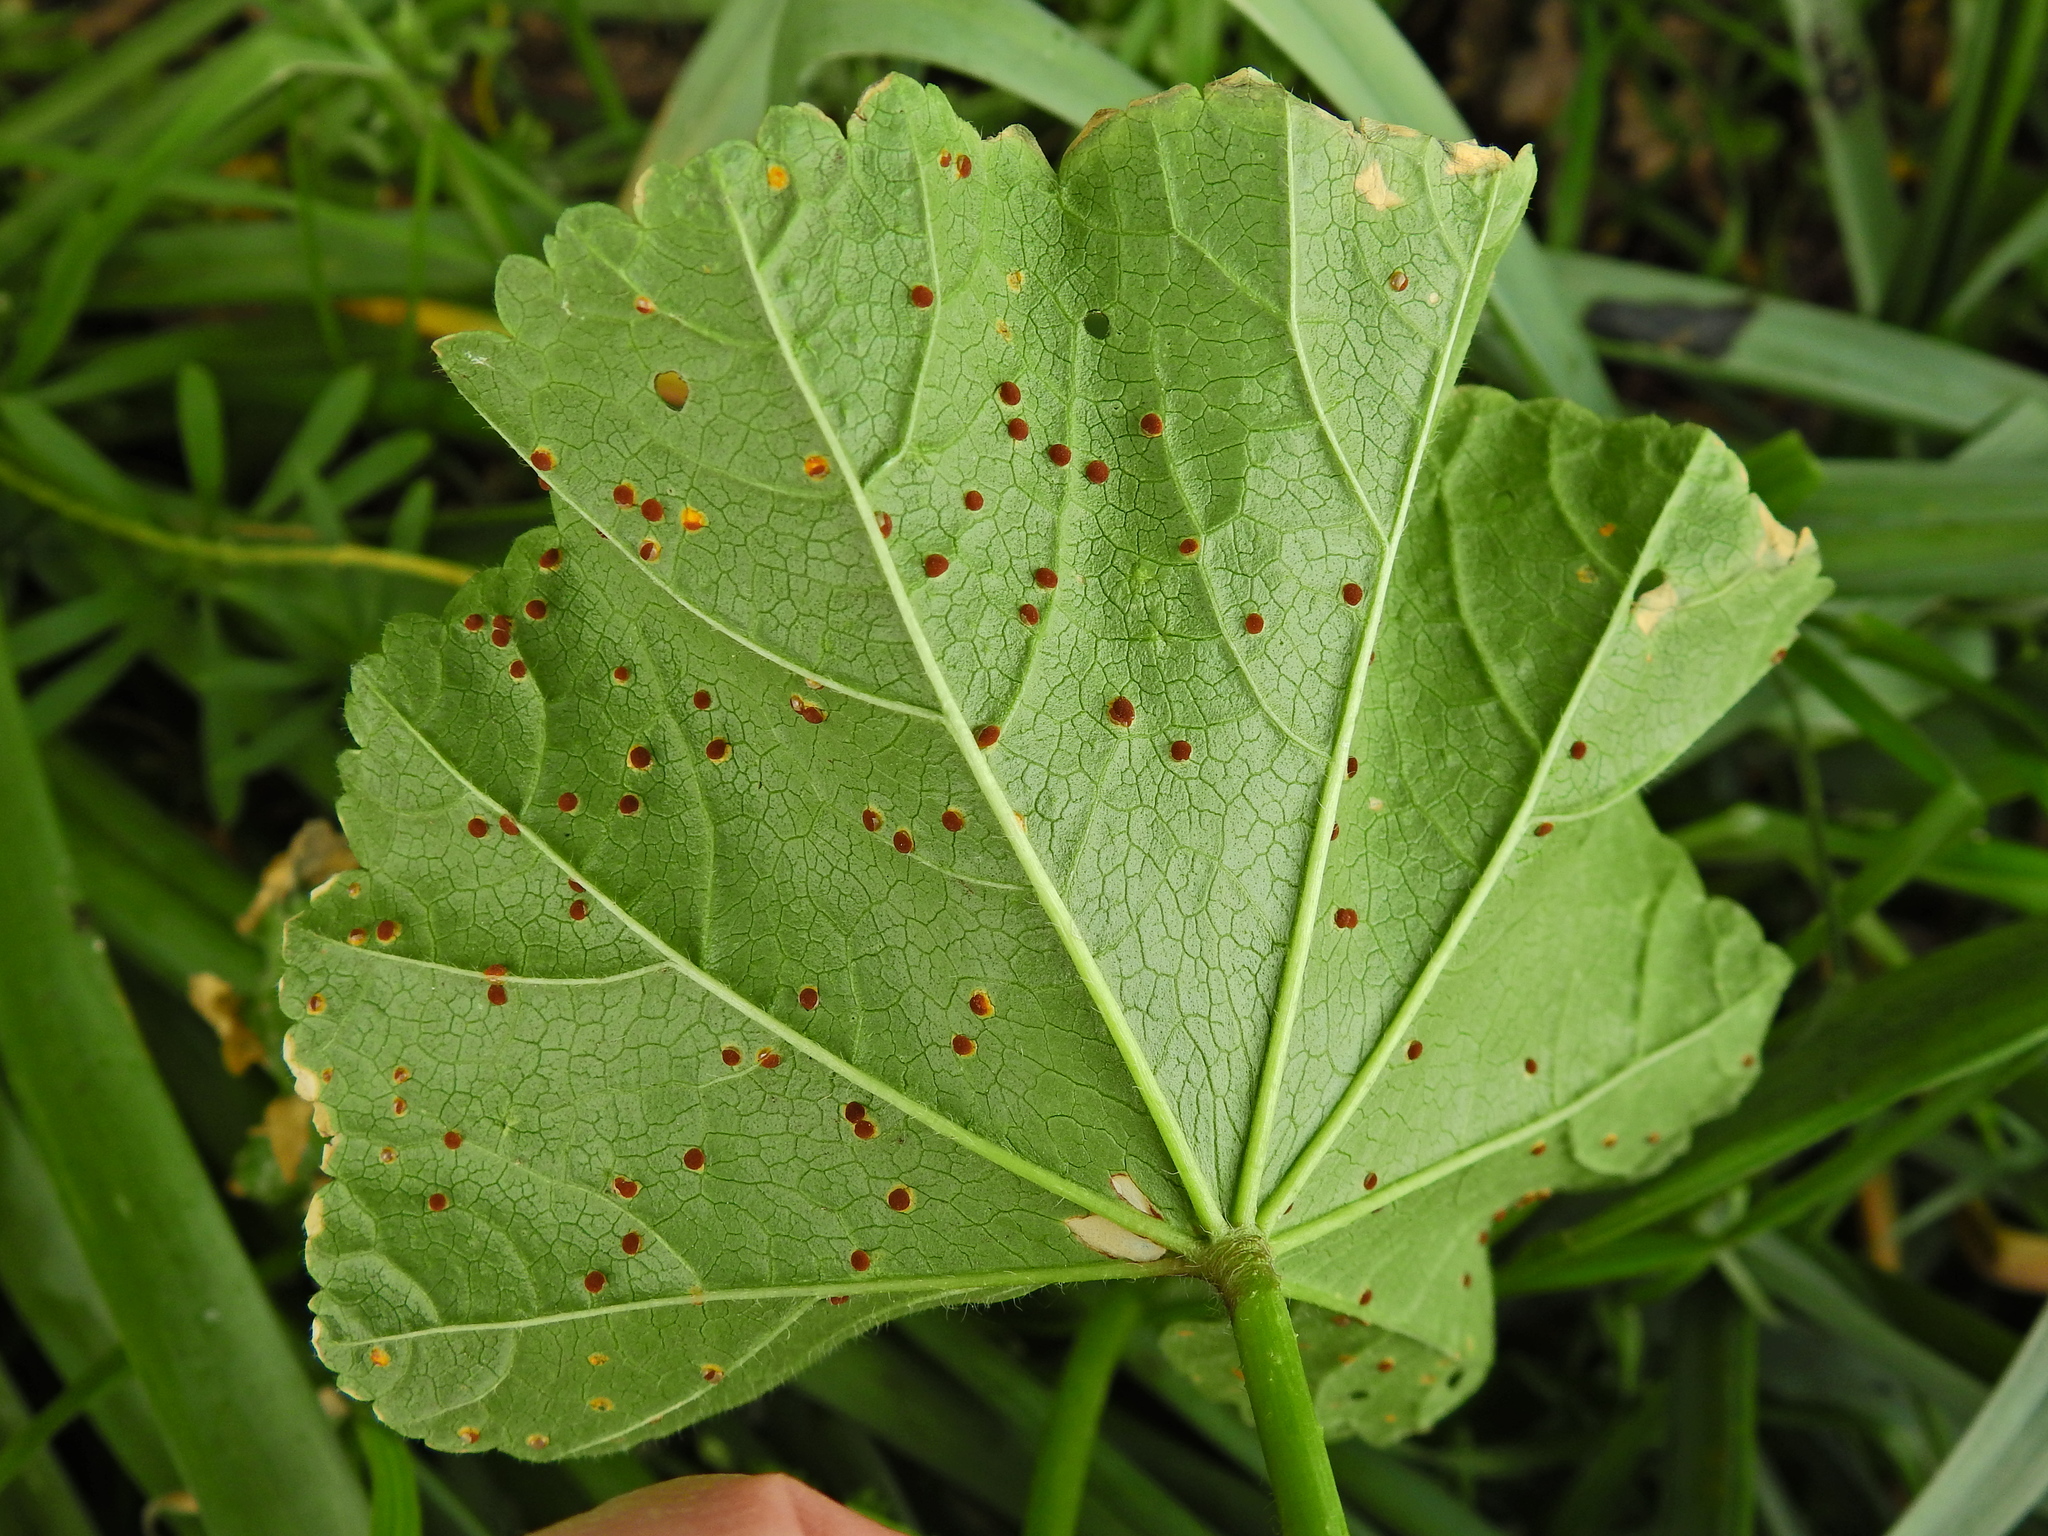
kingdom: Fungi
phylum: Basidiomycota
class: Pucciniomycetes
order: Pucciniales
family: Pucciniaceae
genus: Puccinia
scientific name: Puccinia malvacearum
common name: Hollyhock rust
